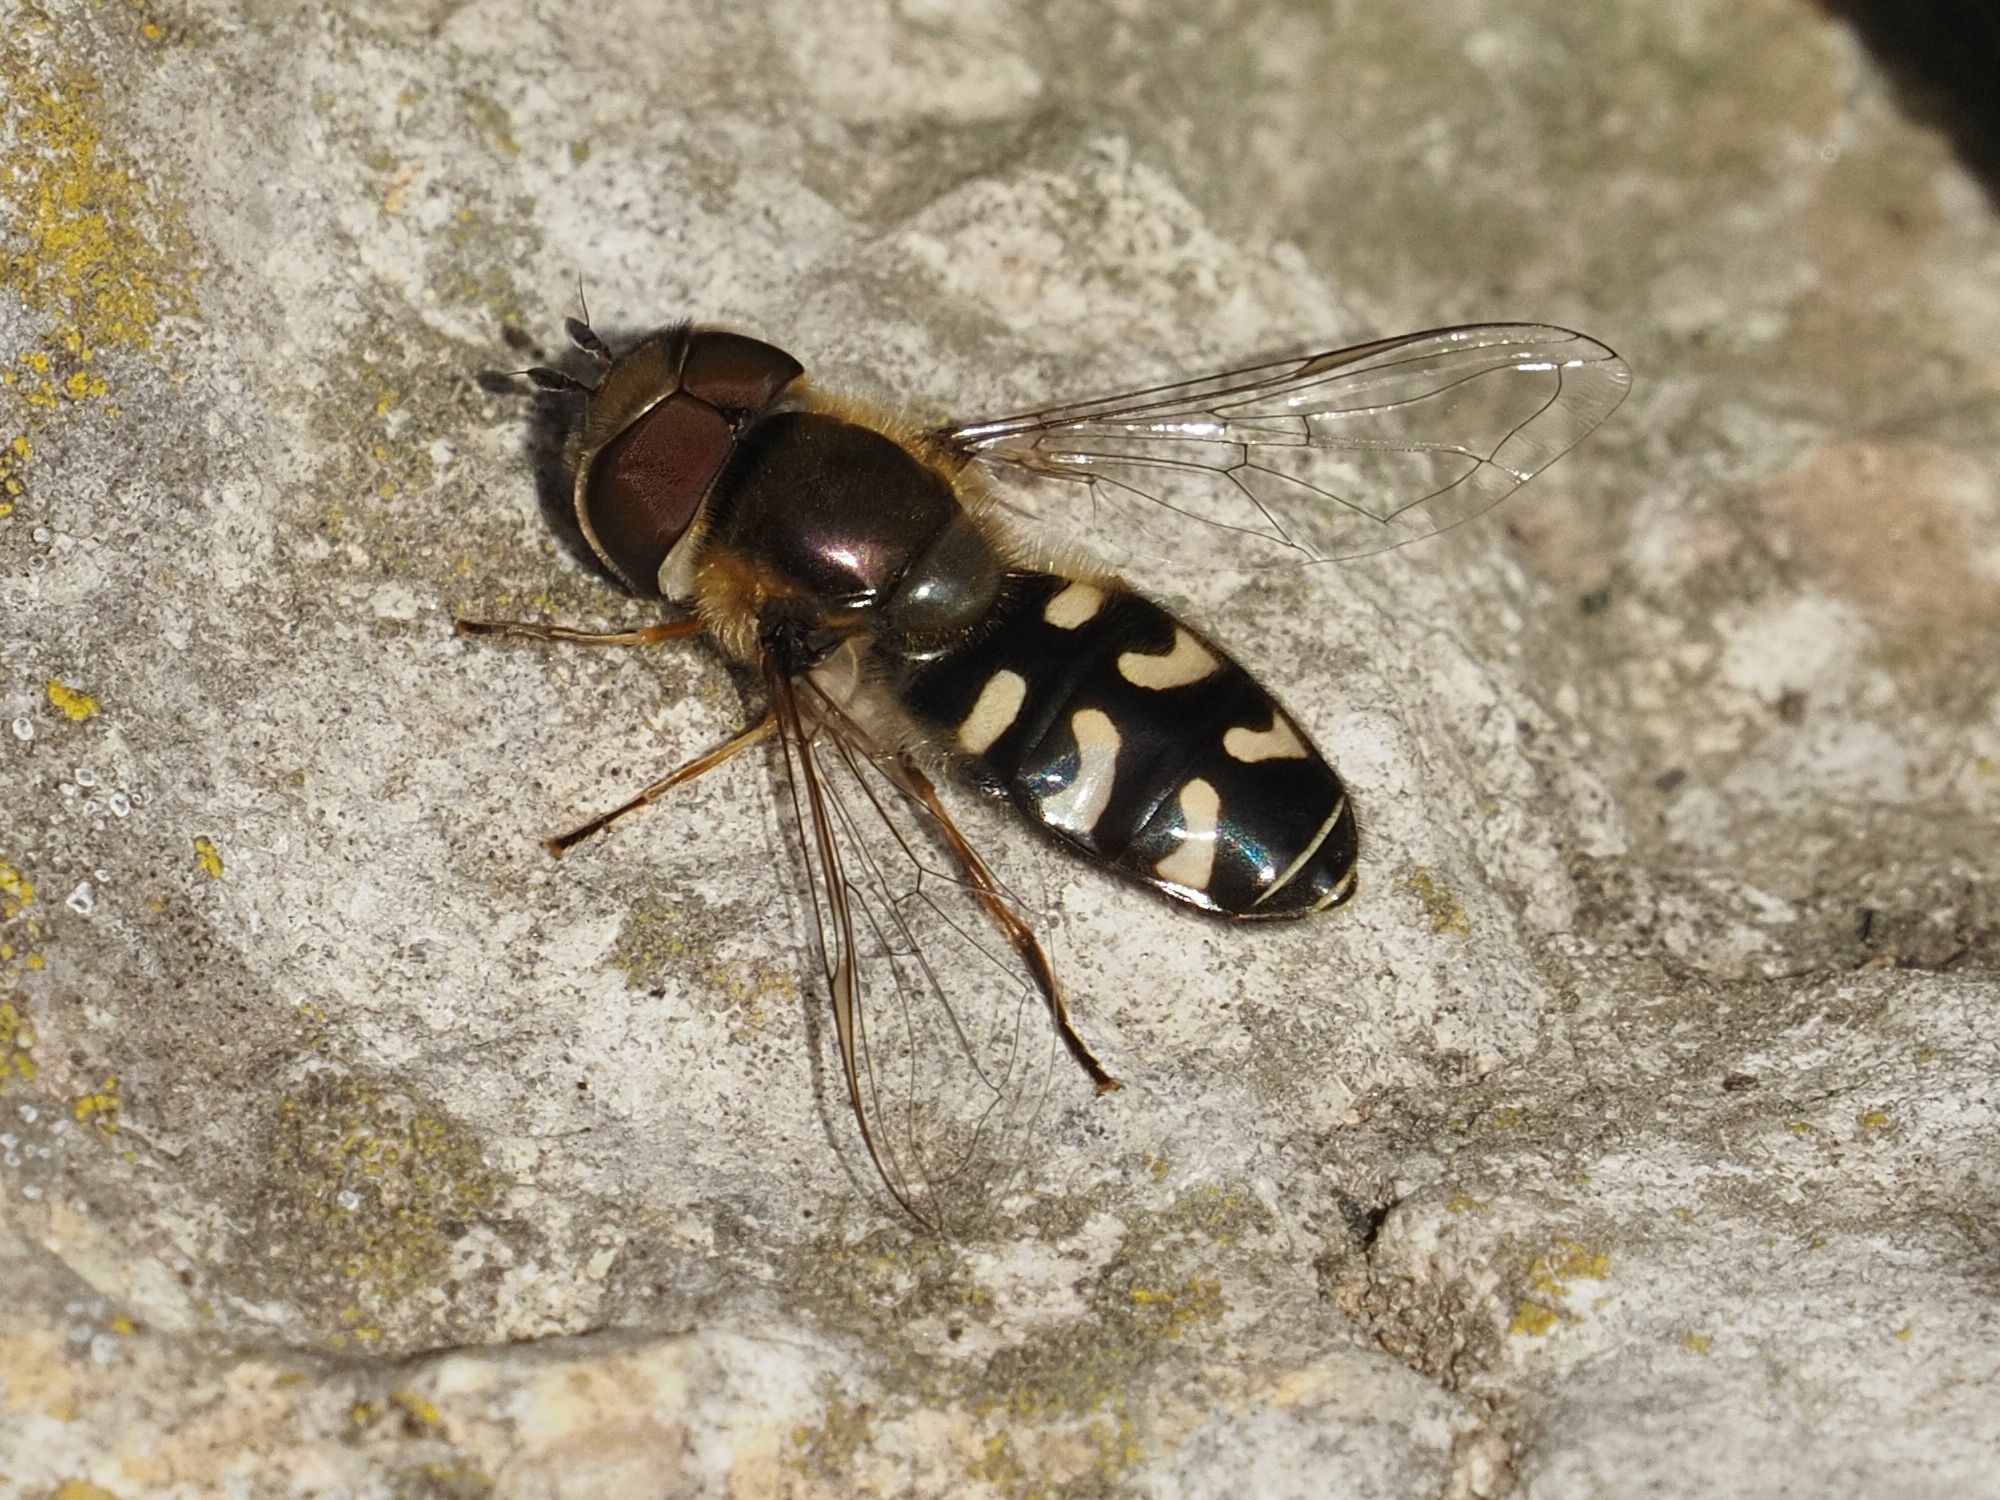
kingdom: Animalia
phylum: Arthropoda
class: Insecta
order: Diptera
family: Syrphidae
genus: Scaeva
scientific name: Scaeva pyrastri
